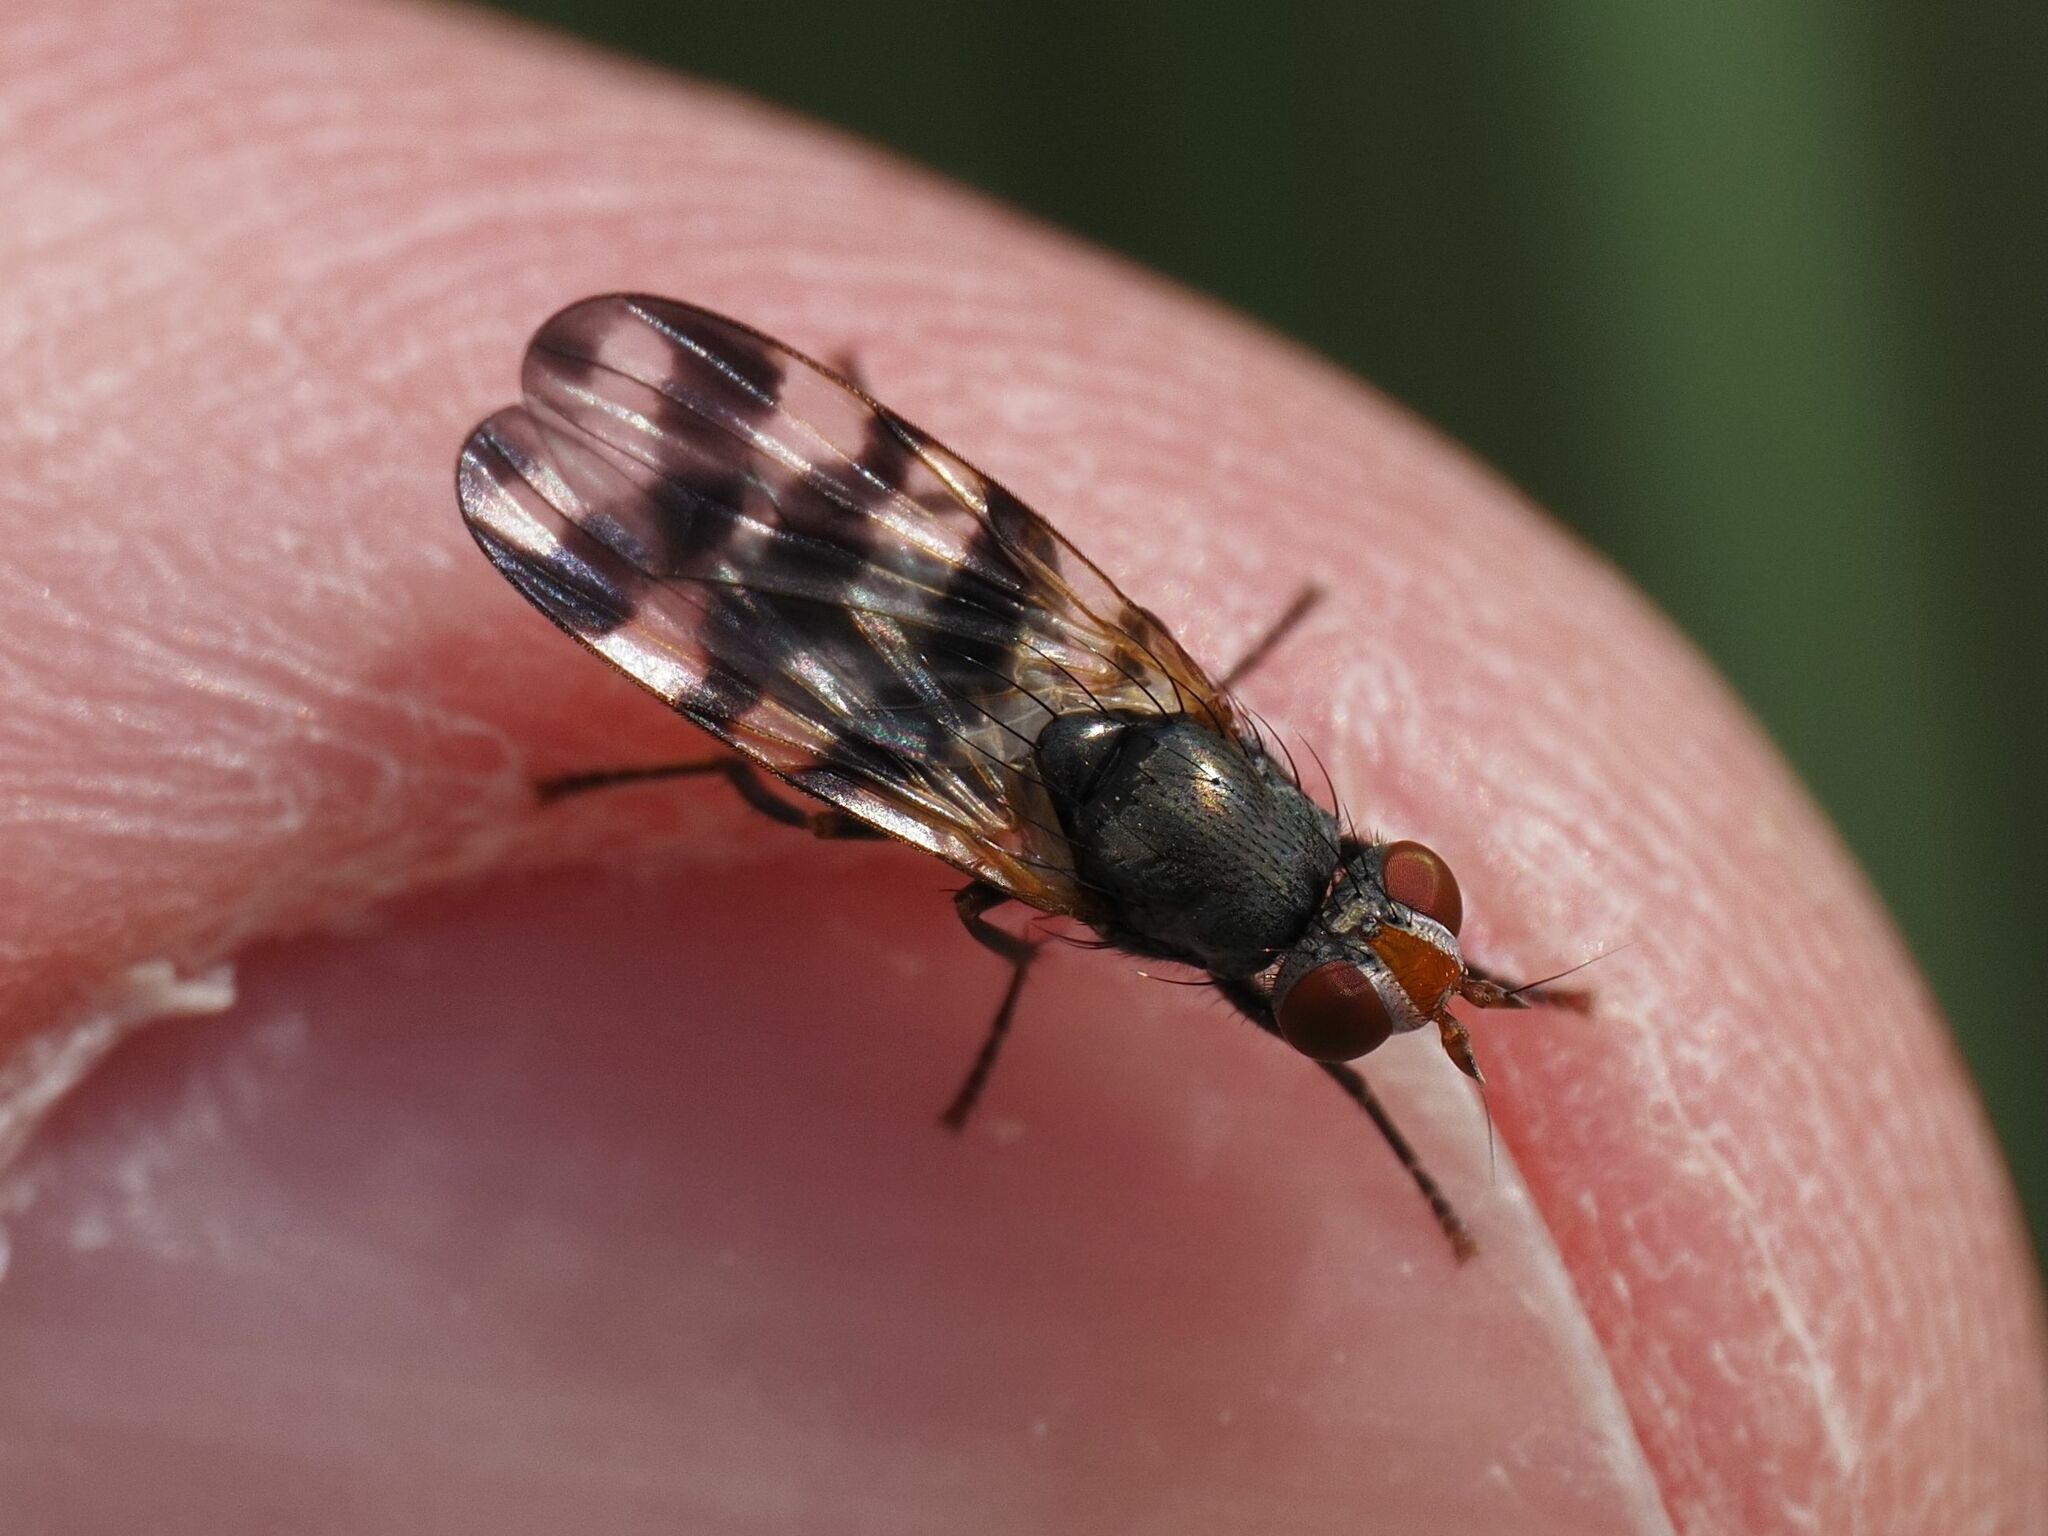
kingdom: Animalia
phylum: Arthropoda
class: Insecta
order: Diptera
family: Ulidiidae
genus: Ceroxys
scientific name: Ceroxys urticae
